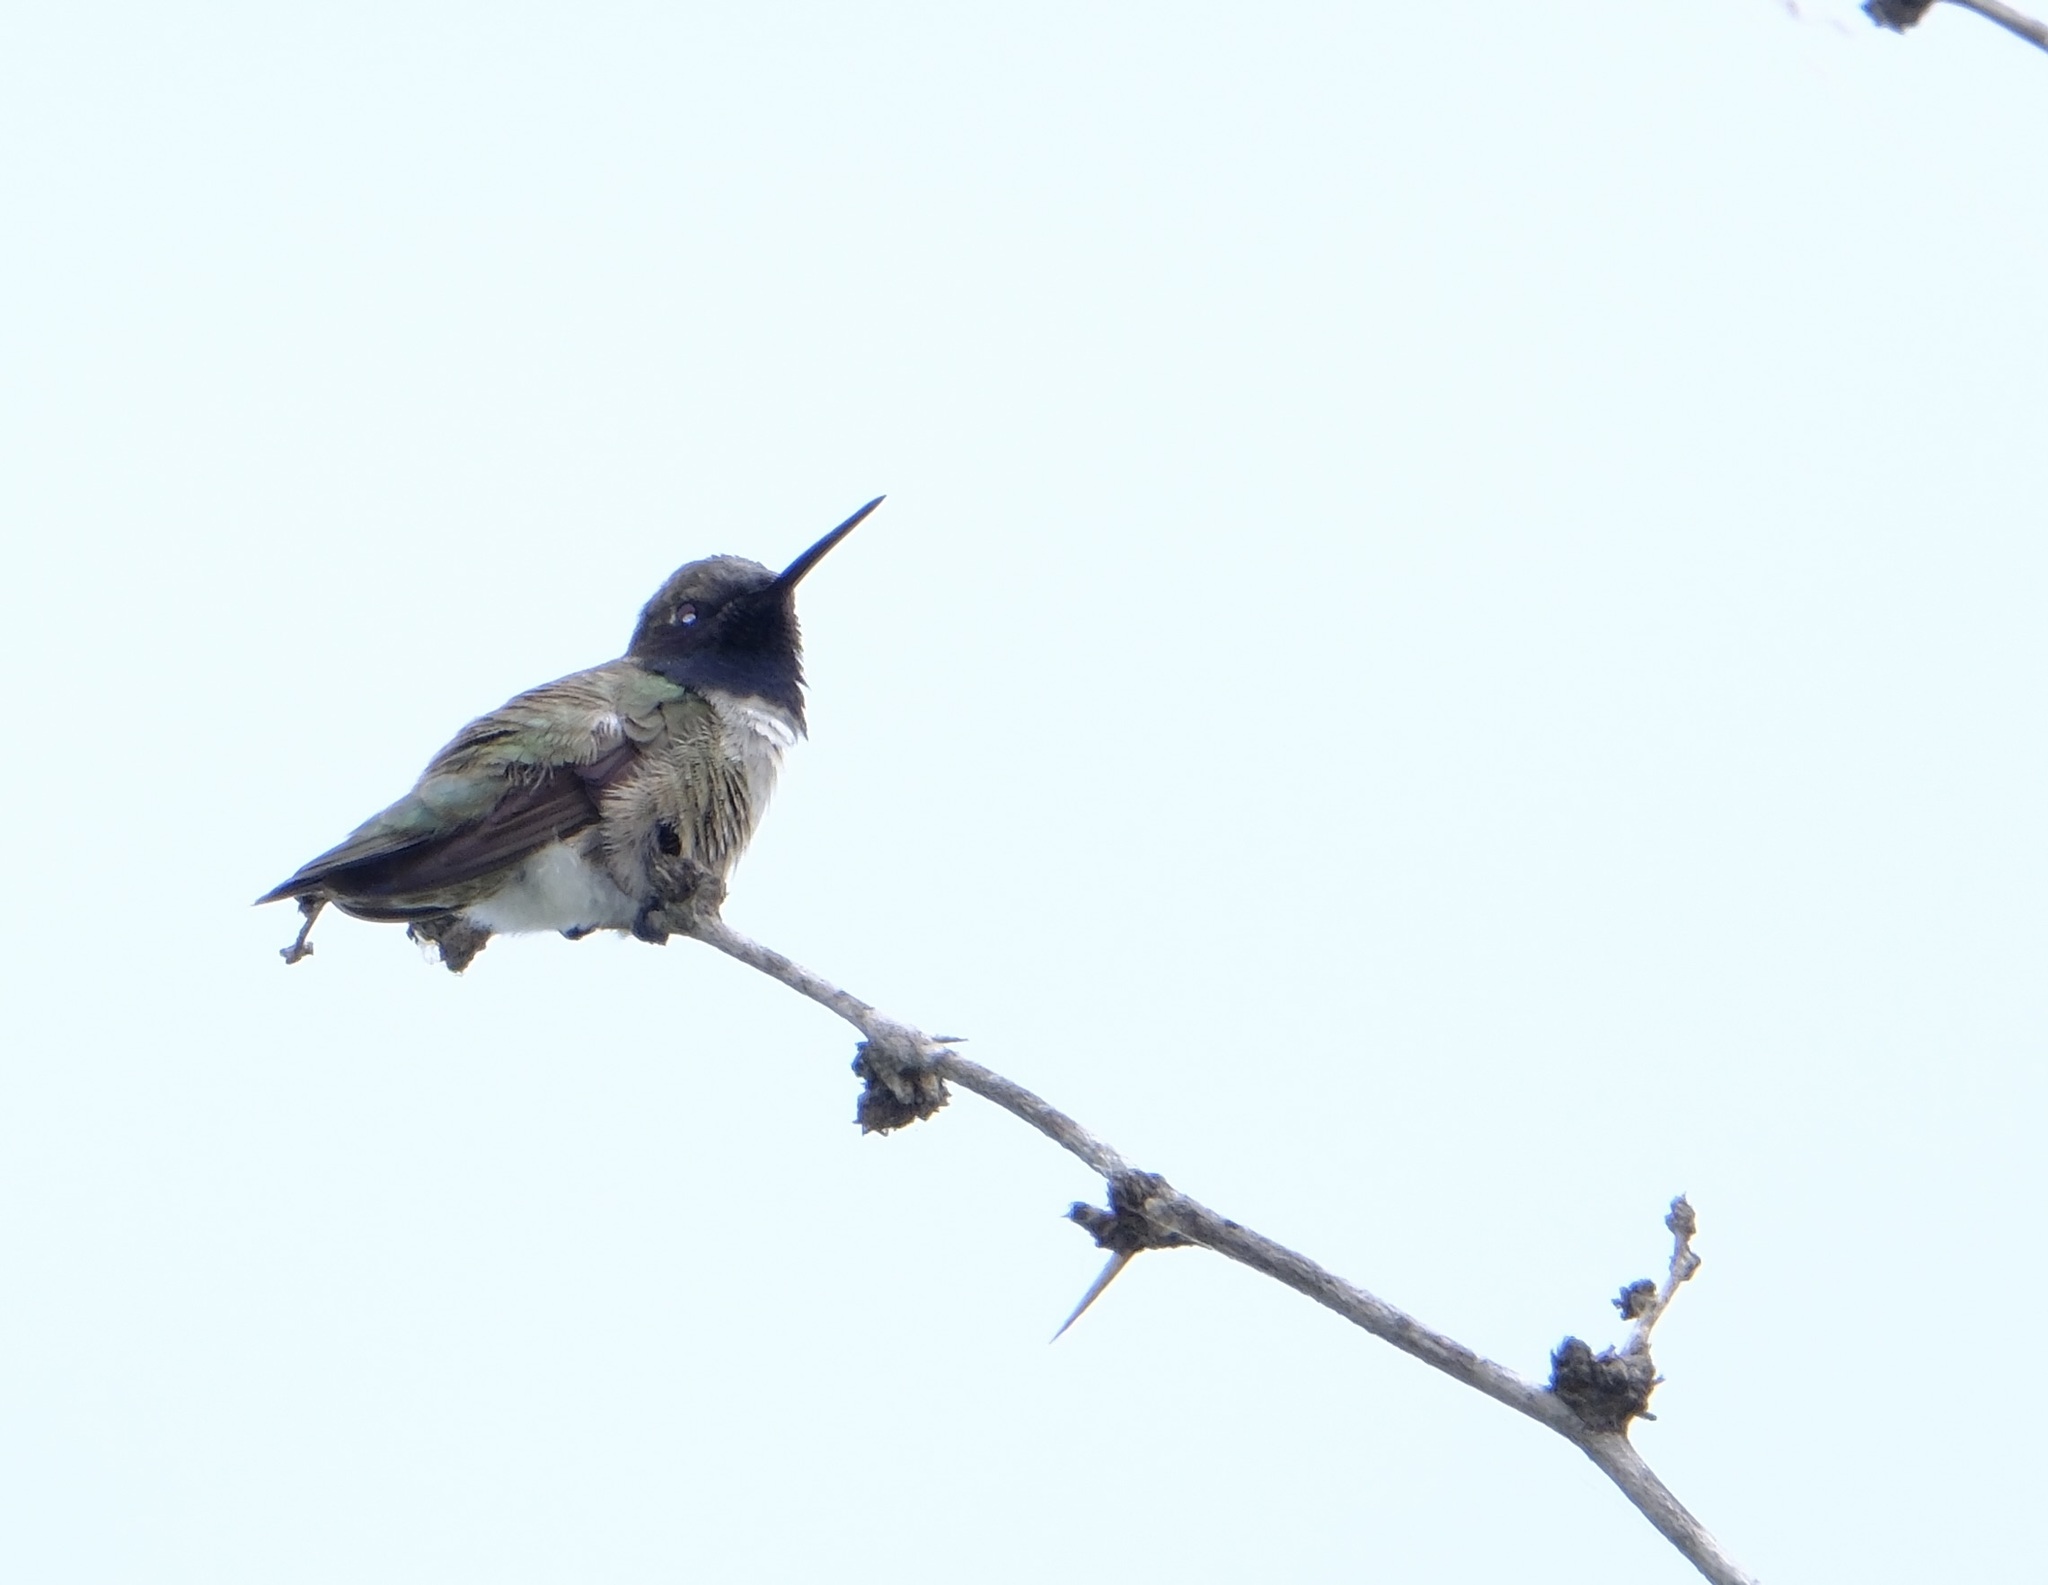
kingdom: Animalia
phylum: Chordata
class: Aves
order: Apodiformes
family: Trochilidae
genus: Archilochus
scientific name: Archilochus alexandri
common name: Black-chinned hummingbird
